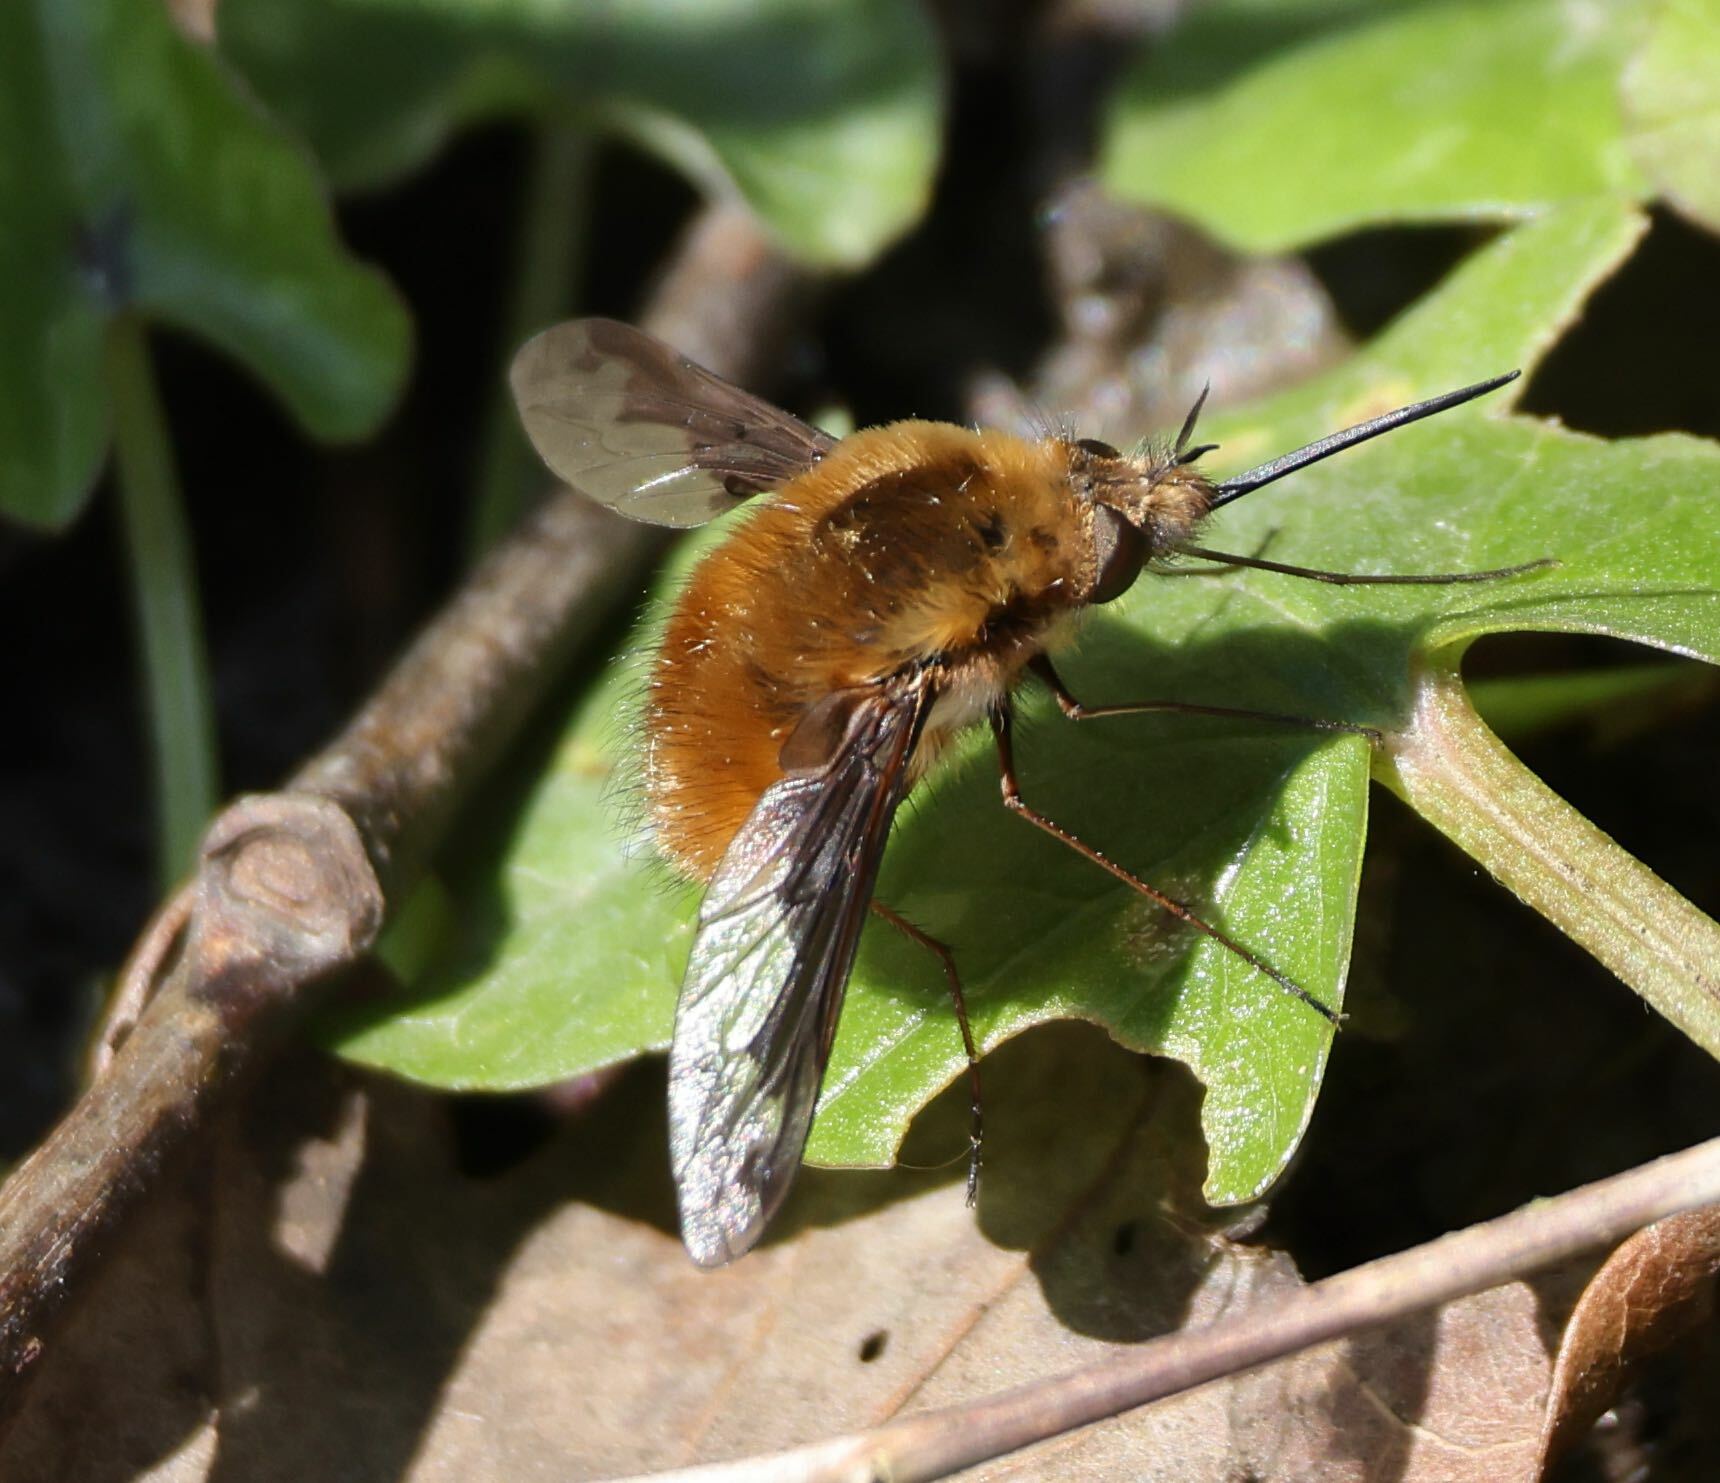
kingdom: Animalia
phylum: Arthropoda
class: Insecta
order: Diptera
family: Bombyliidae
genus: Bombylius
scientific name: Bombylius major
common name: Bee fly
